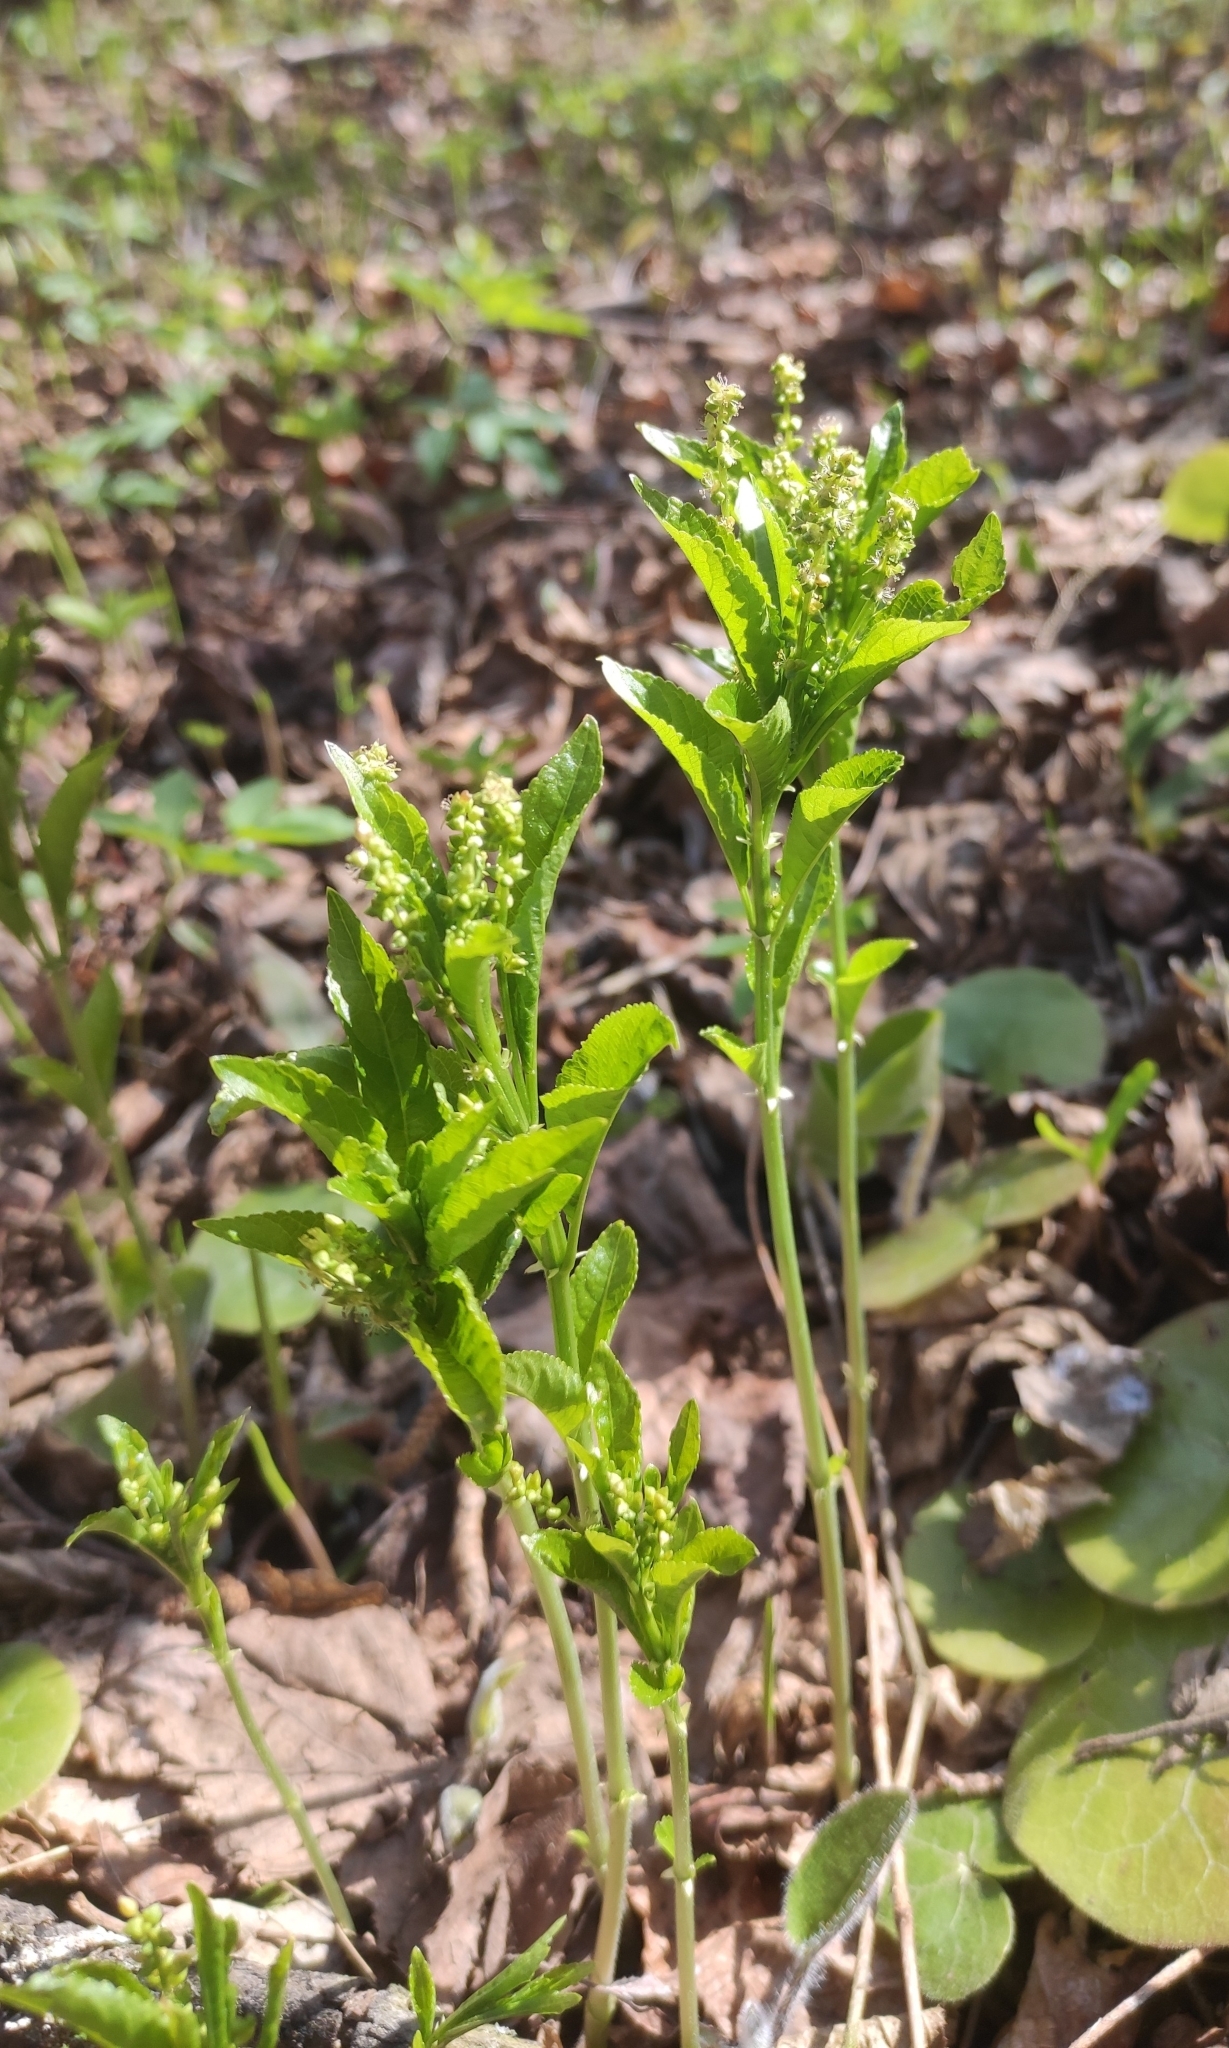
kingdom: Plantae
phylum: Tracheophyta
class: Magnoliopsida
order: Malpighiales
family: Euphorbiaceae
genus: Mercurialis
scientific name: Mercurialis perennis
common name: Dog mercury
